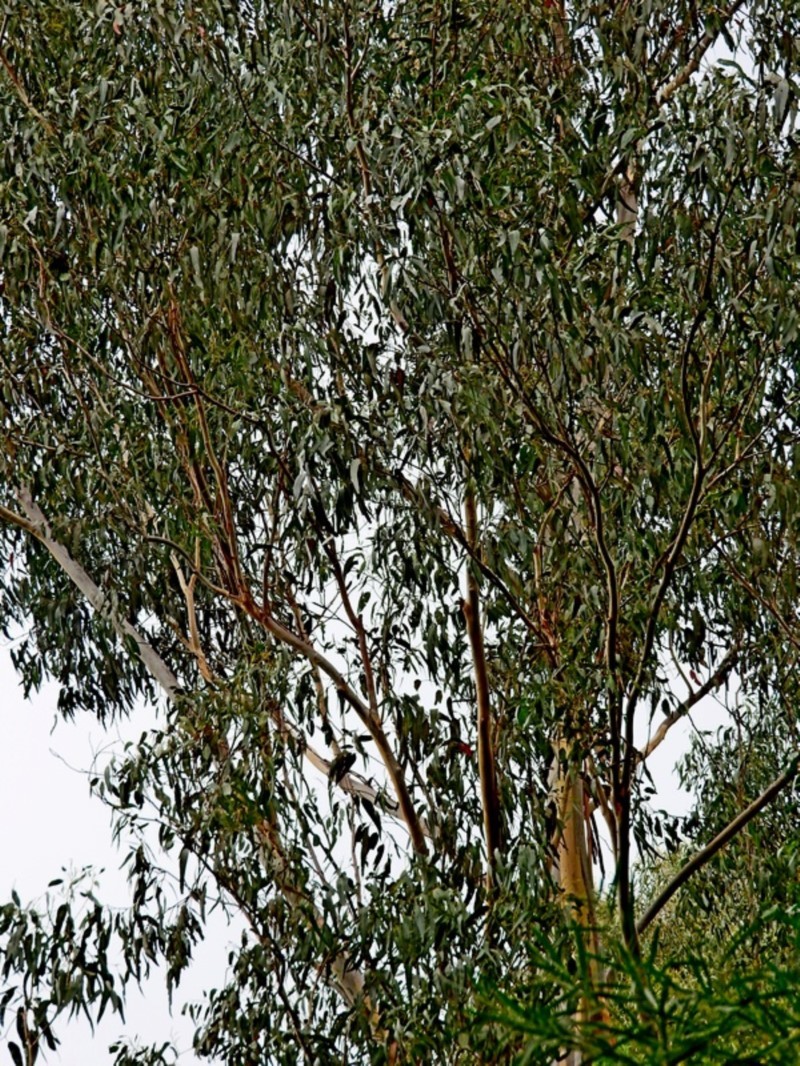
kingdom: Plantae
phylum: Tracheophyta
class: Magnoliopsida
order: Myrtales
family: Myrtaceae
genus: Eucalyptus
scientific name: Eucalyptus cypellocarpa
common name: Mountain grey gum
